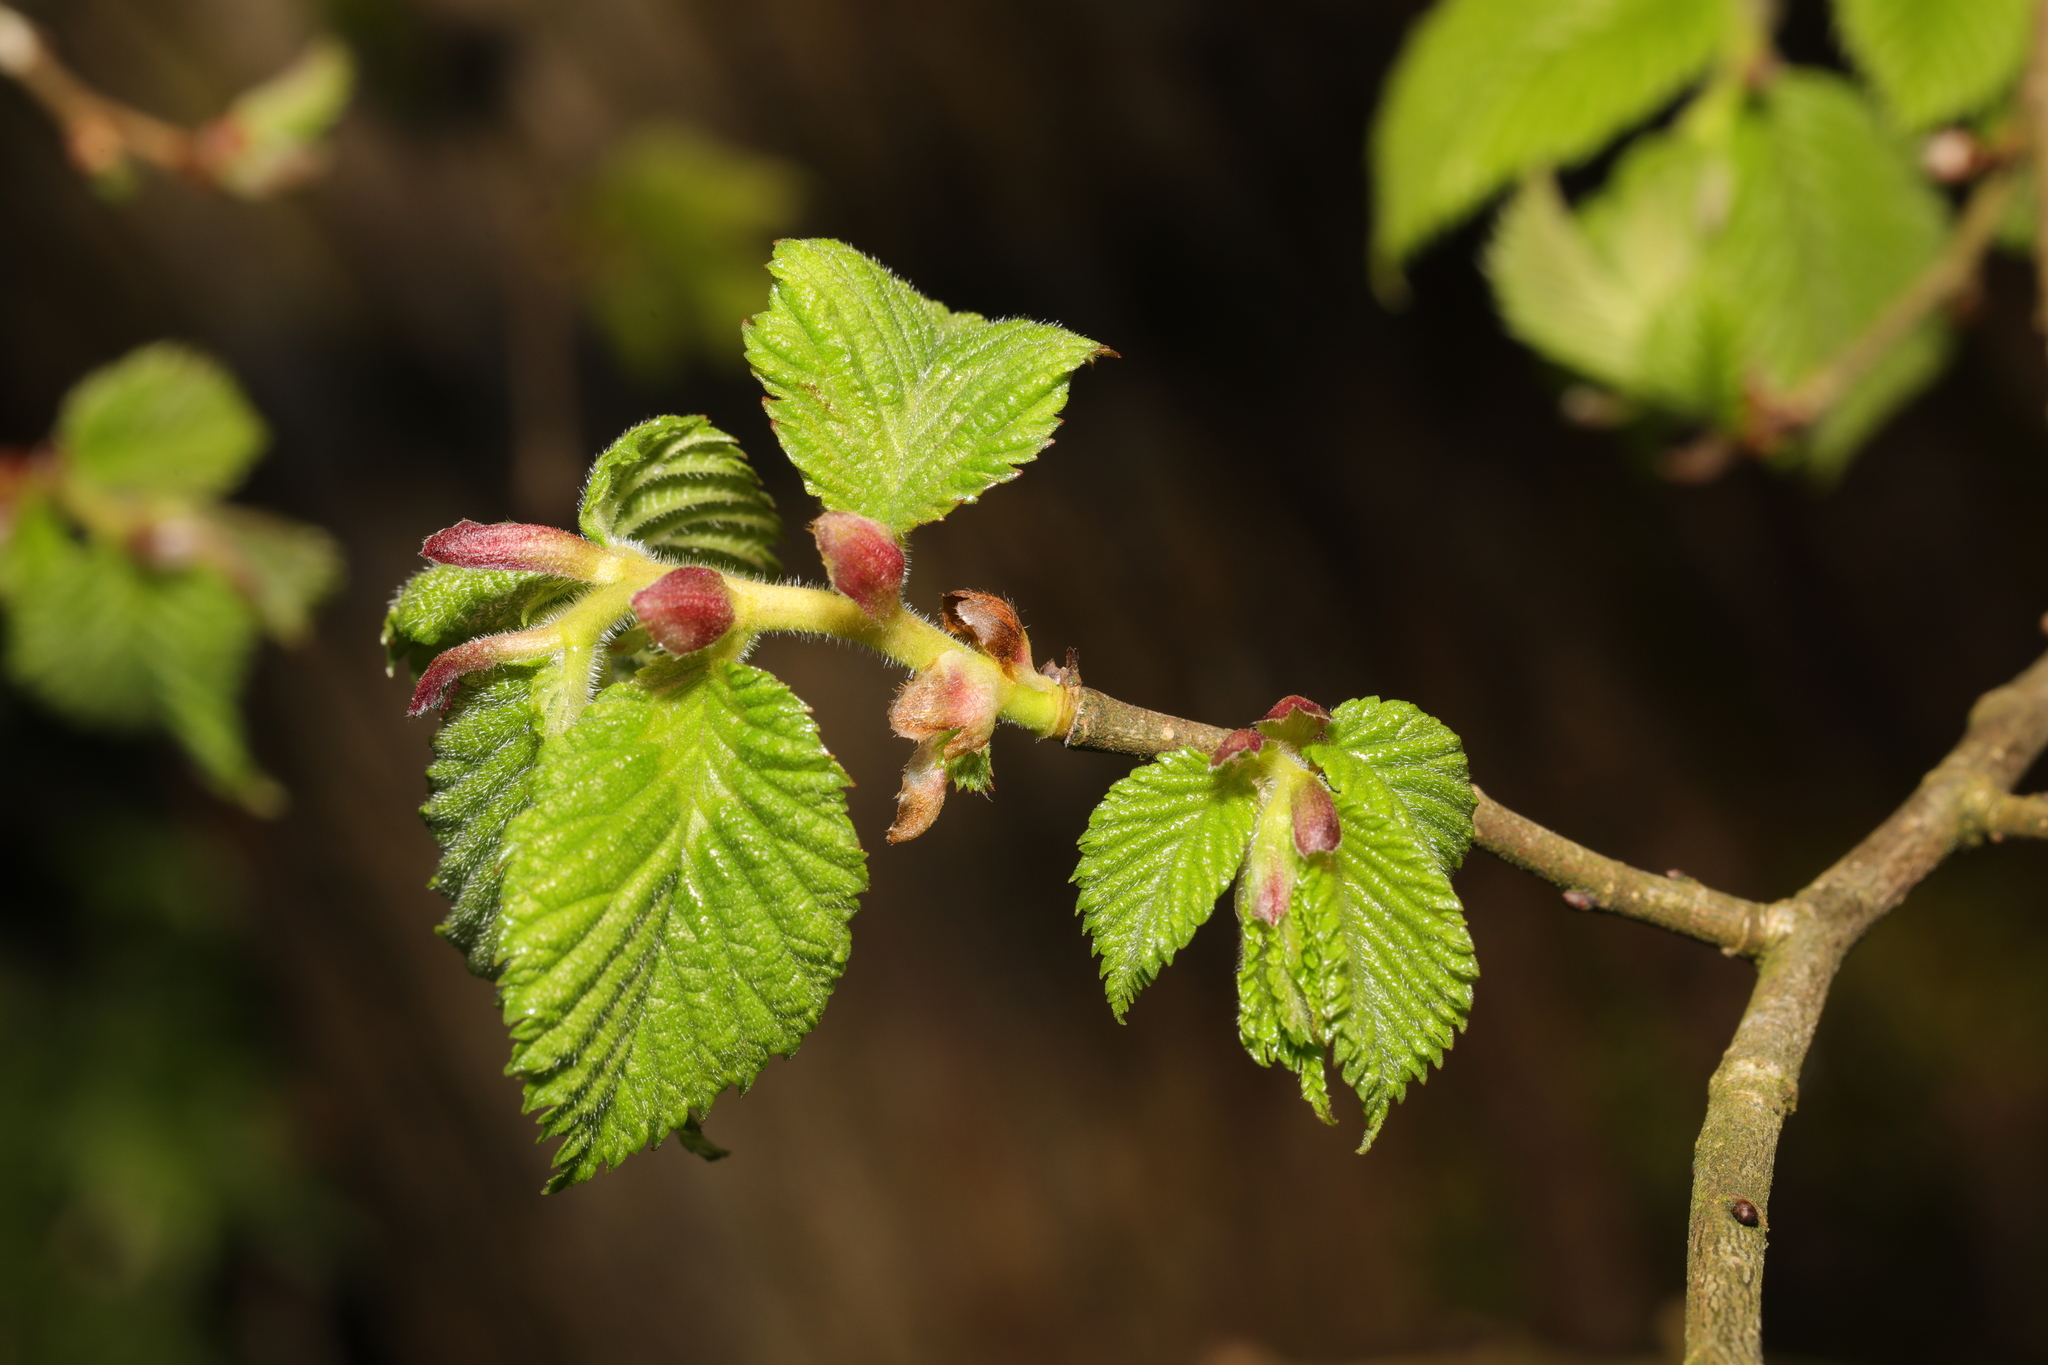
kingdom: Plantae
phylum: Tracheophyta
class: Magnoliopsida
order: Fagales
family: Betulaceae
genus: Corylus
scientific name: Corylus avellana
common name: European hazel
